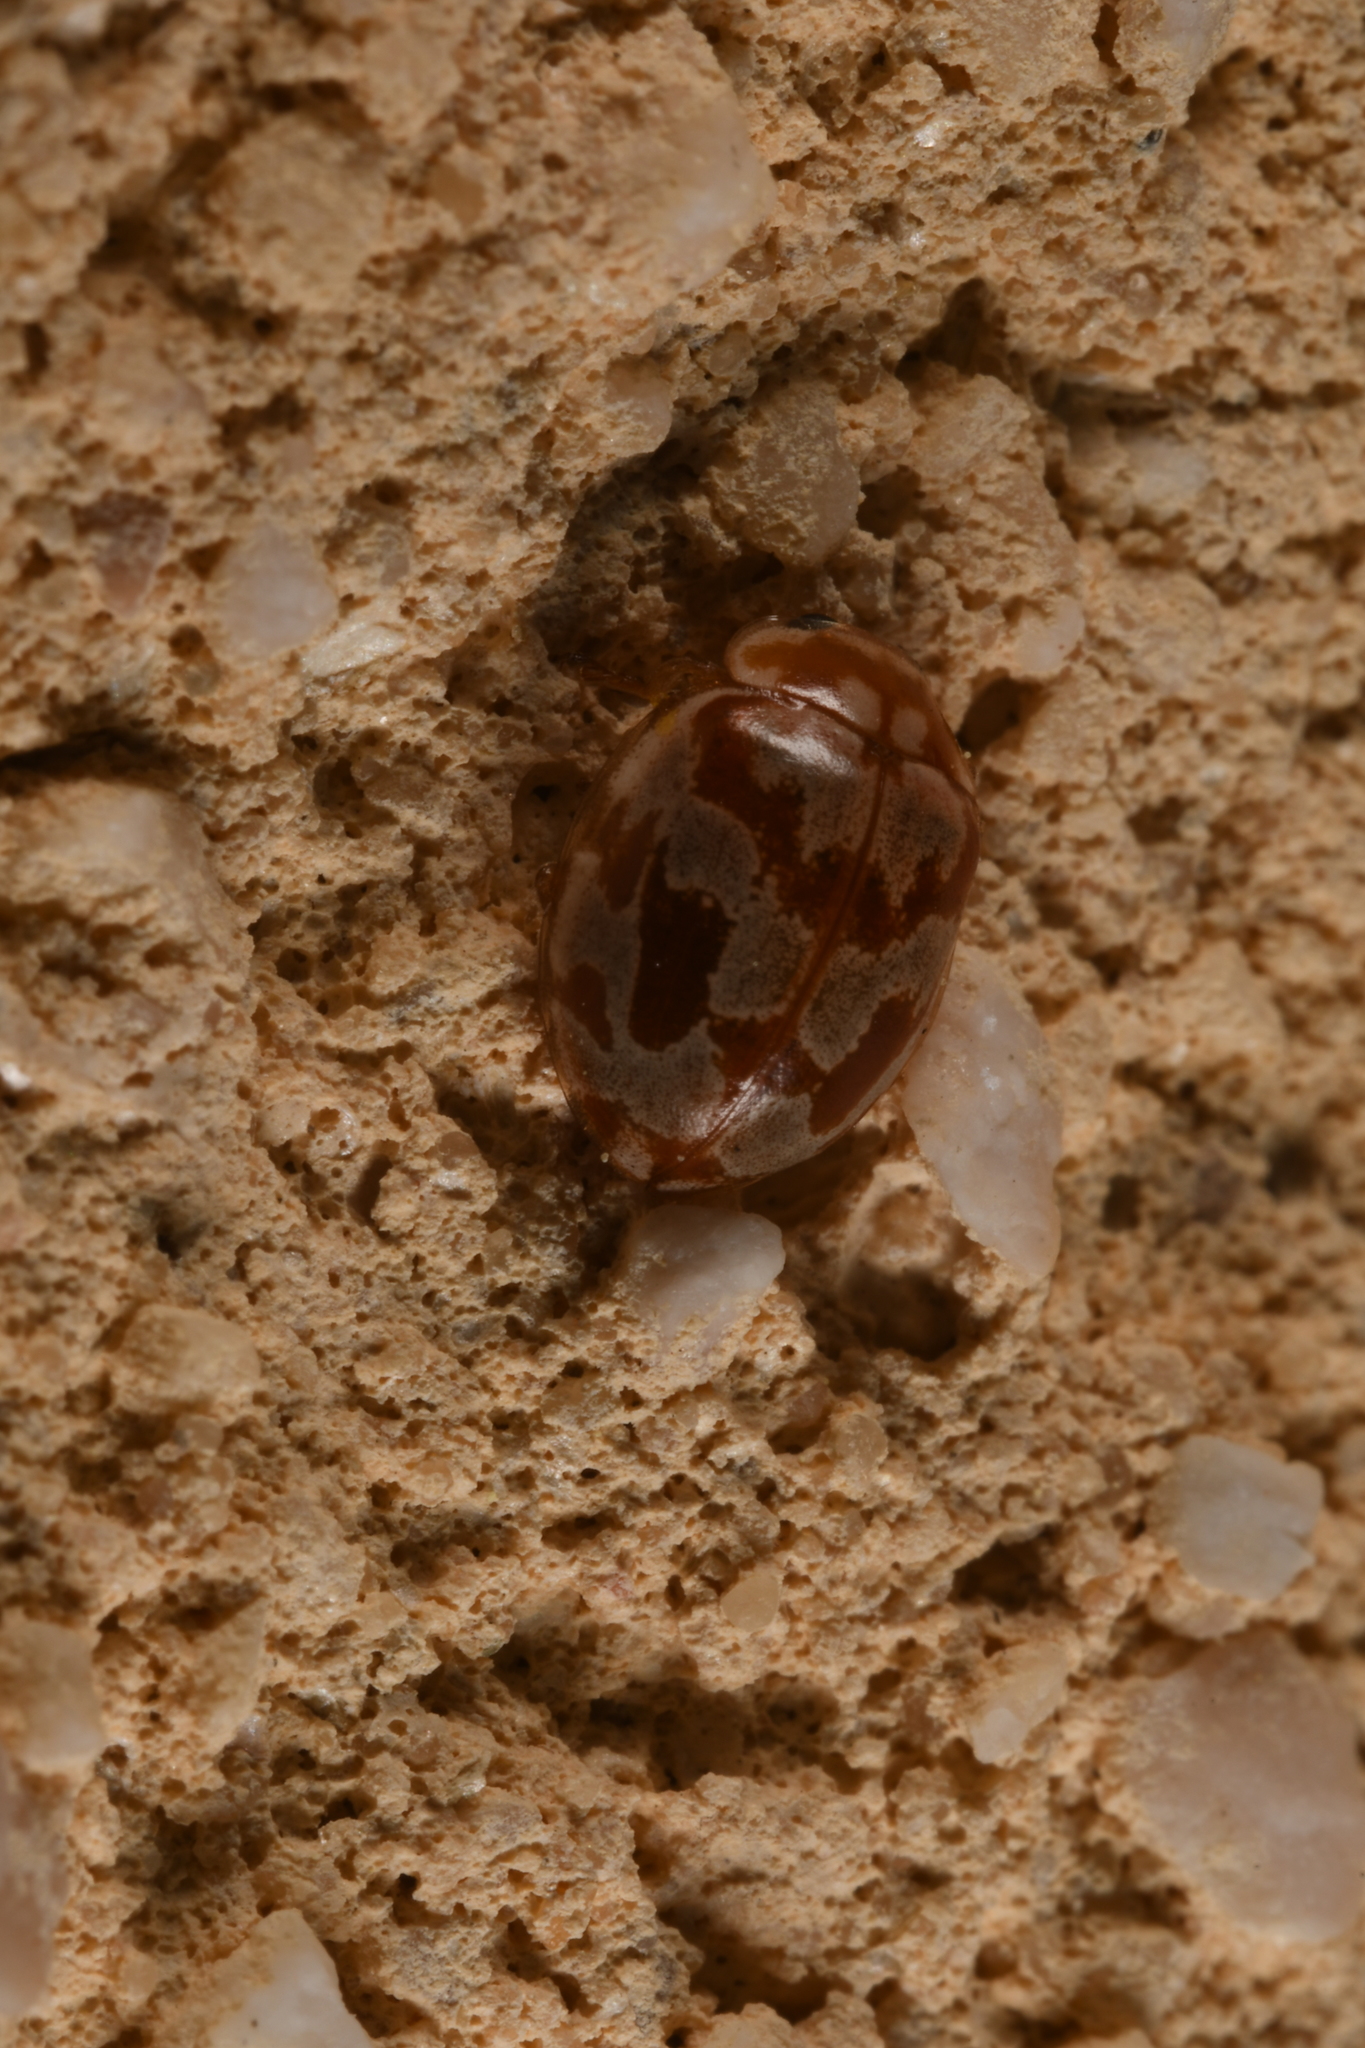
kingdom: Animalia
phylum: Arthropoda
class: Insecta
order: Coleoptera
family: Coccinellidae
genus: Myrrha
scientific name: Myrrha octodecimguttata
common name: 18-spot ladybird
